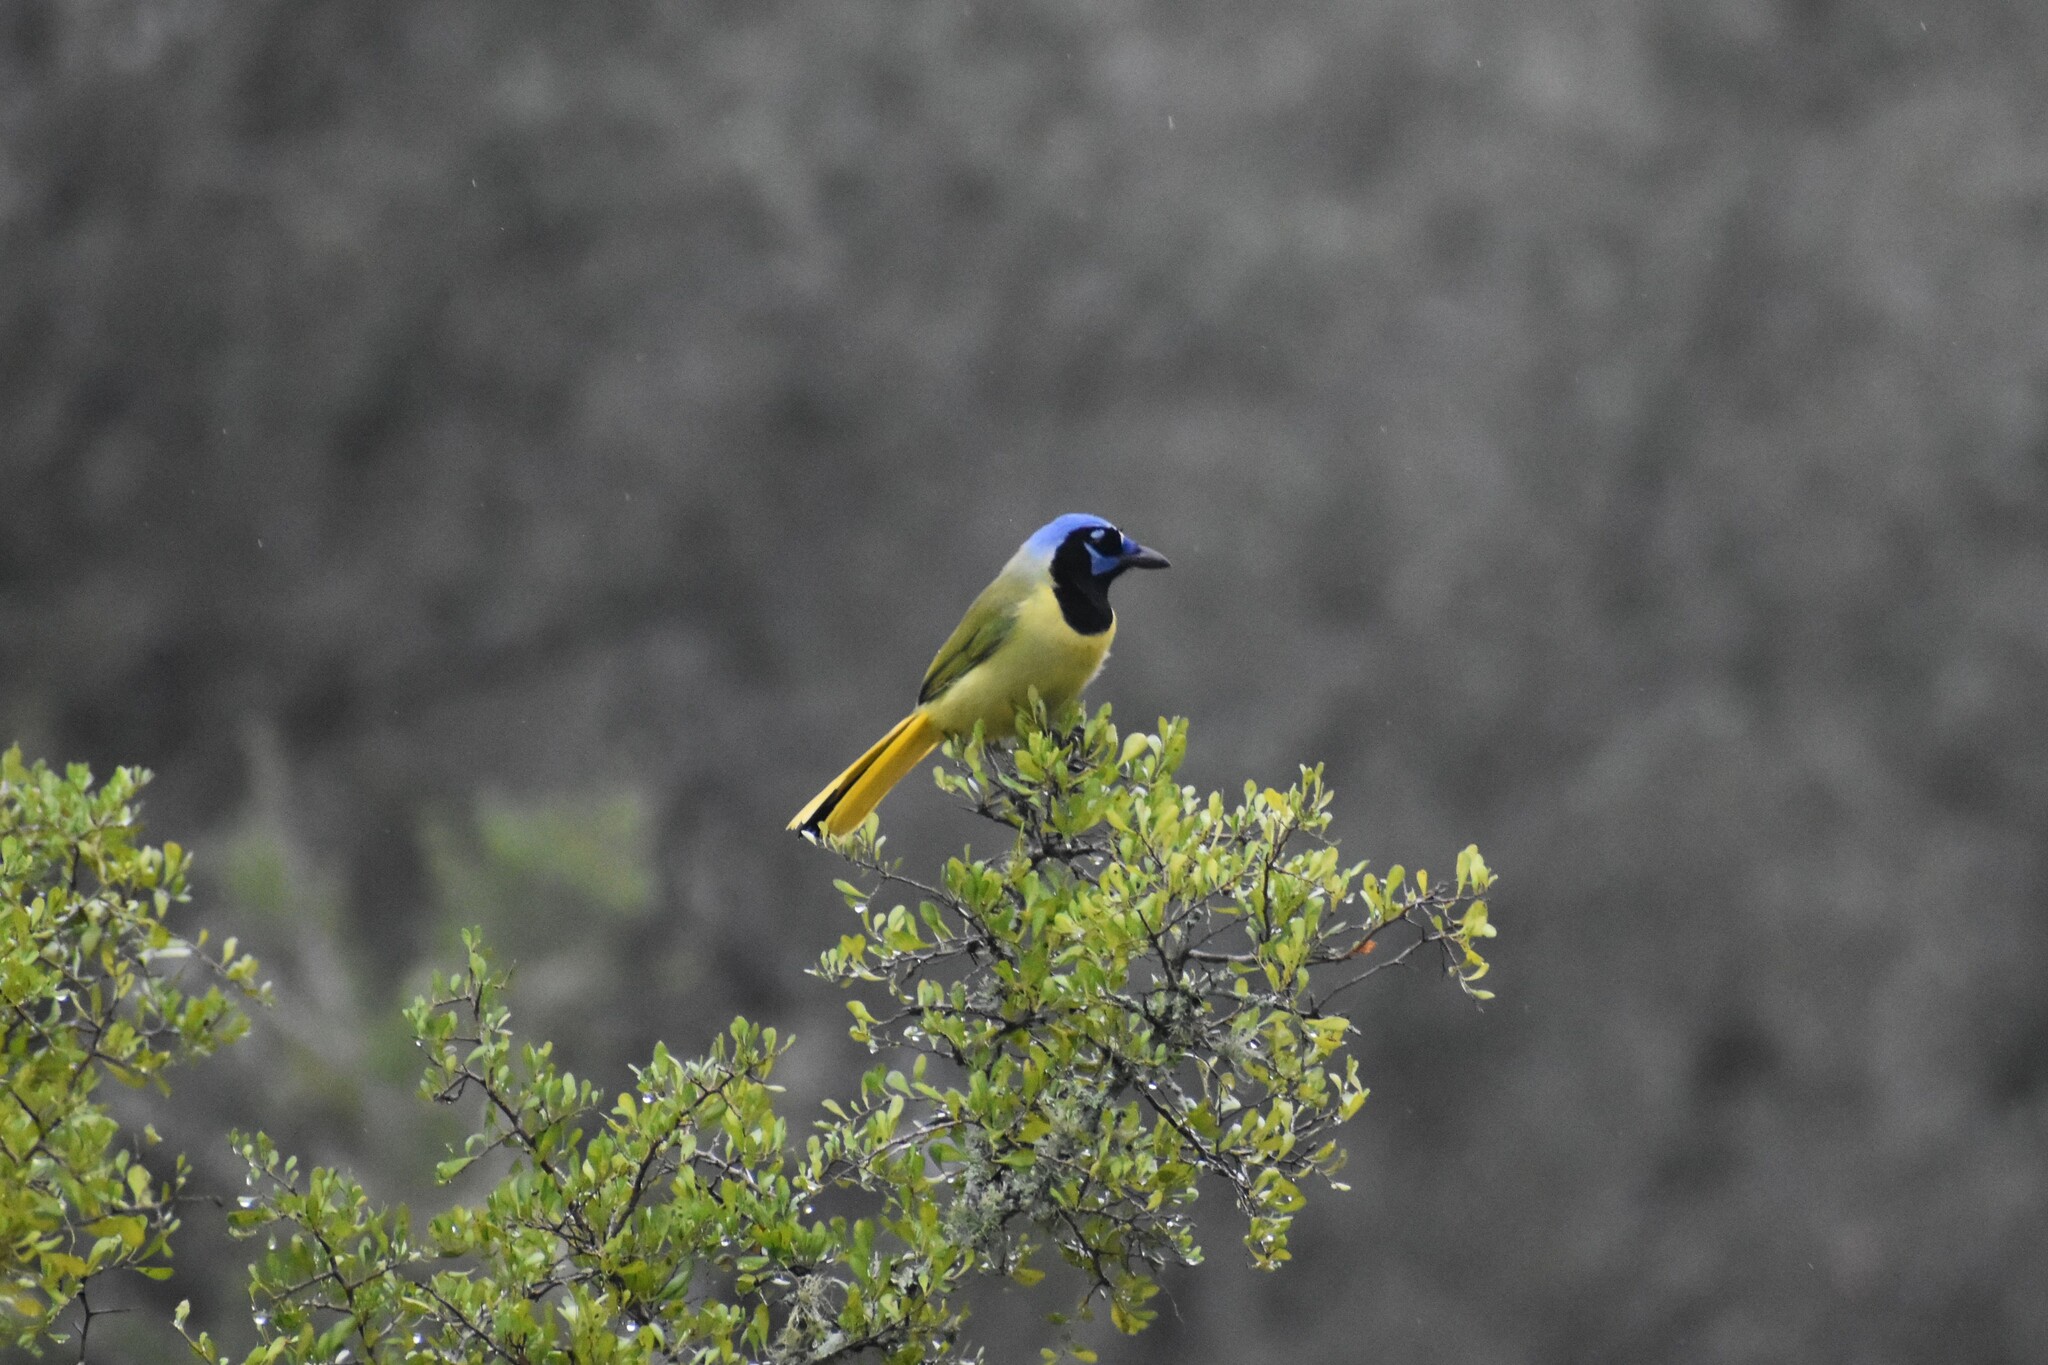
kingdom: Animalia
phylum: Chordata
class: Aves
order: Passeriformes
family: Corvidae
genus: Cyanocorax
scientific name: Cyanocorax yncas
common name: Green jay
